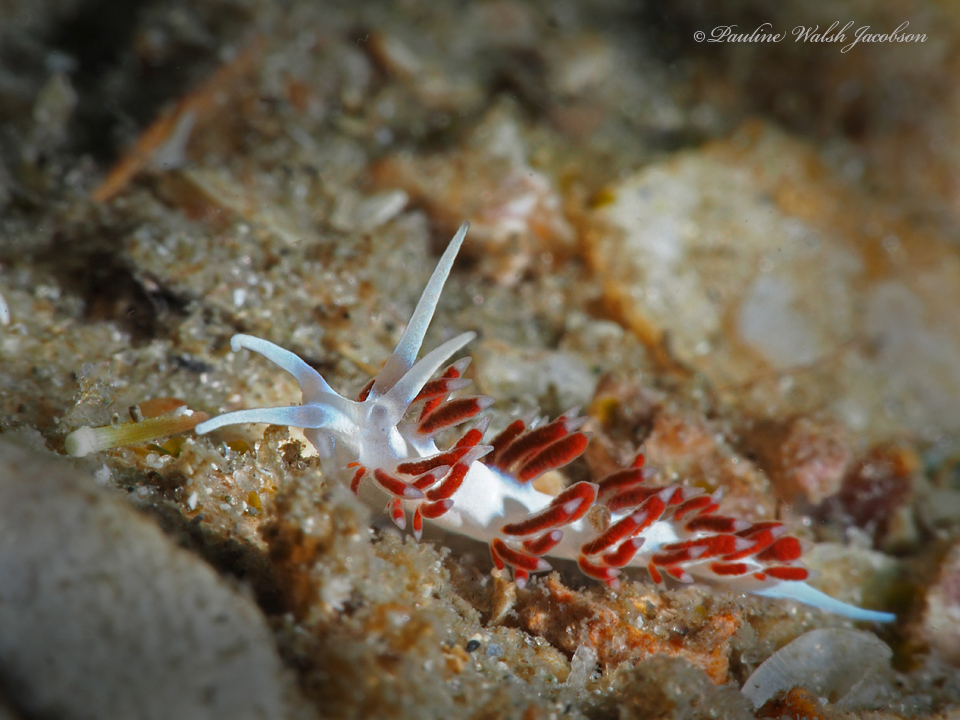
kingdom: Animalia
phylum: Mollusca
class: Gastropoda
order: Nudibranchia
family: Flabellinidae
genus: Flabellina
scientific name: Flabellina dushia
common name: Dushia flabellina
